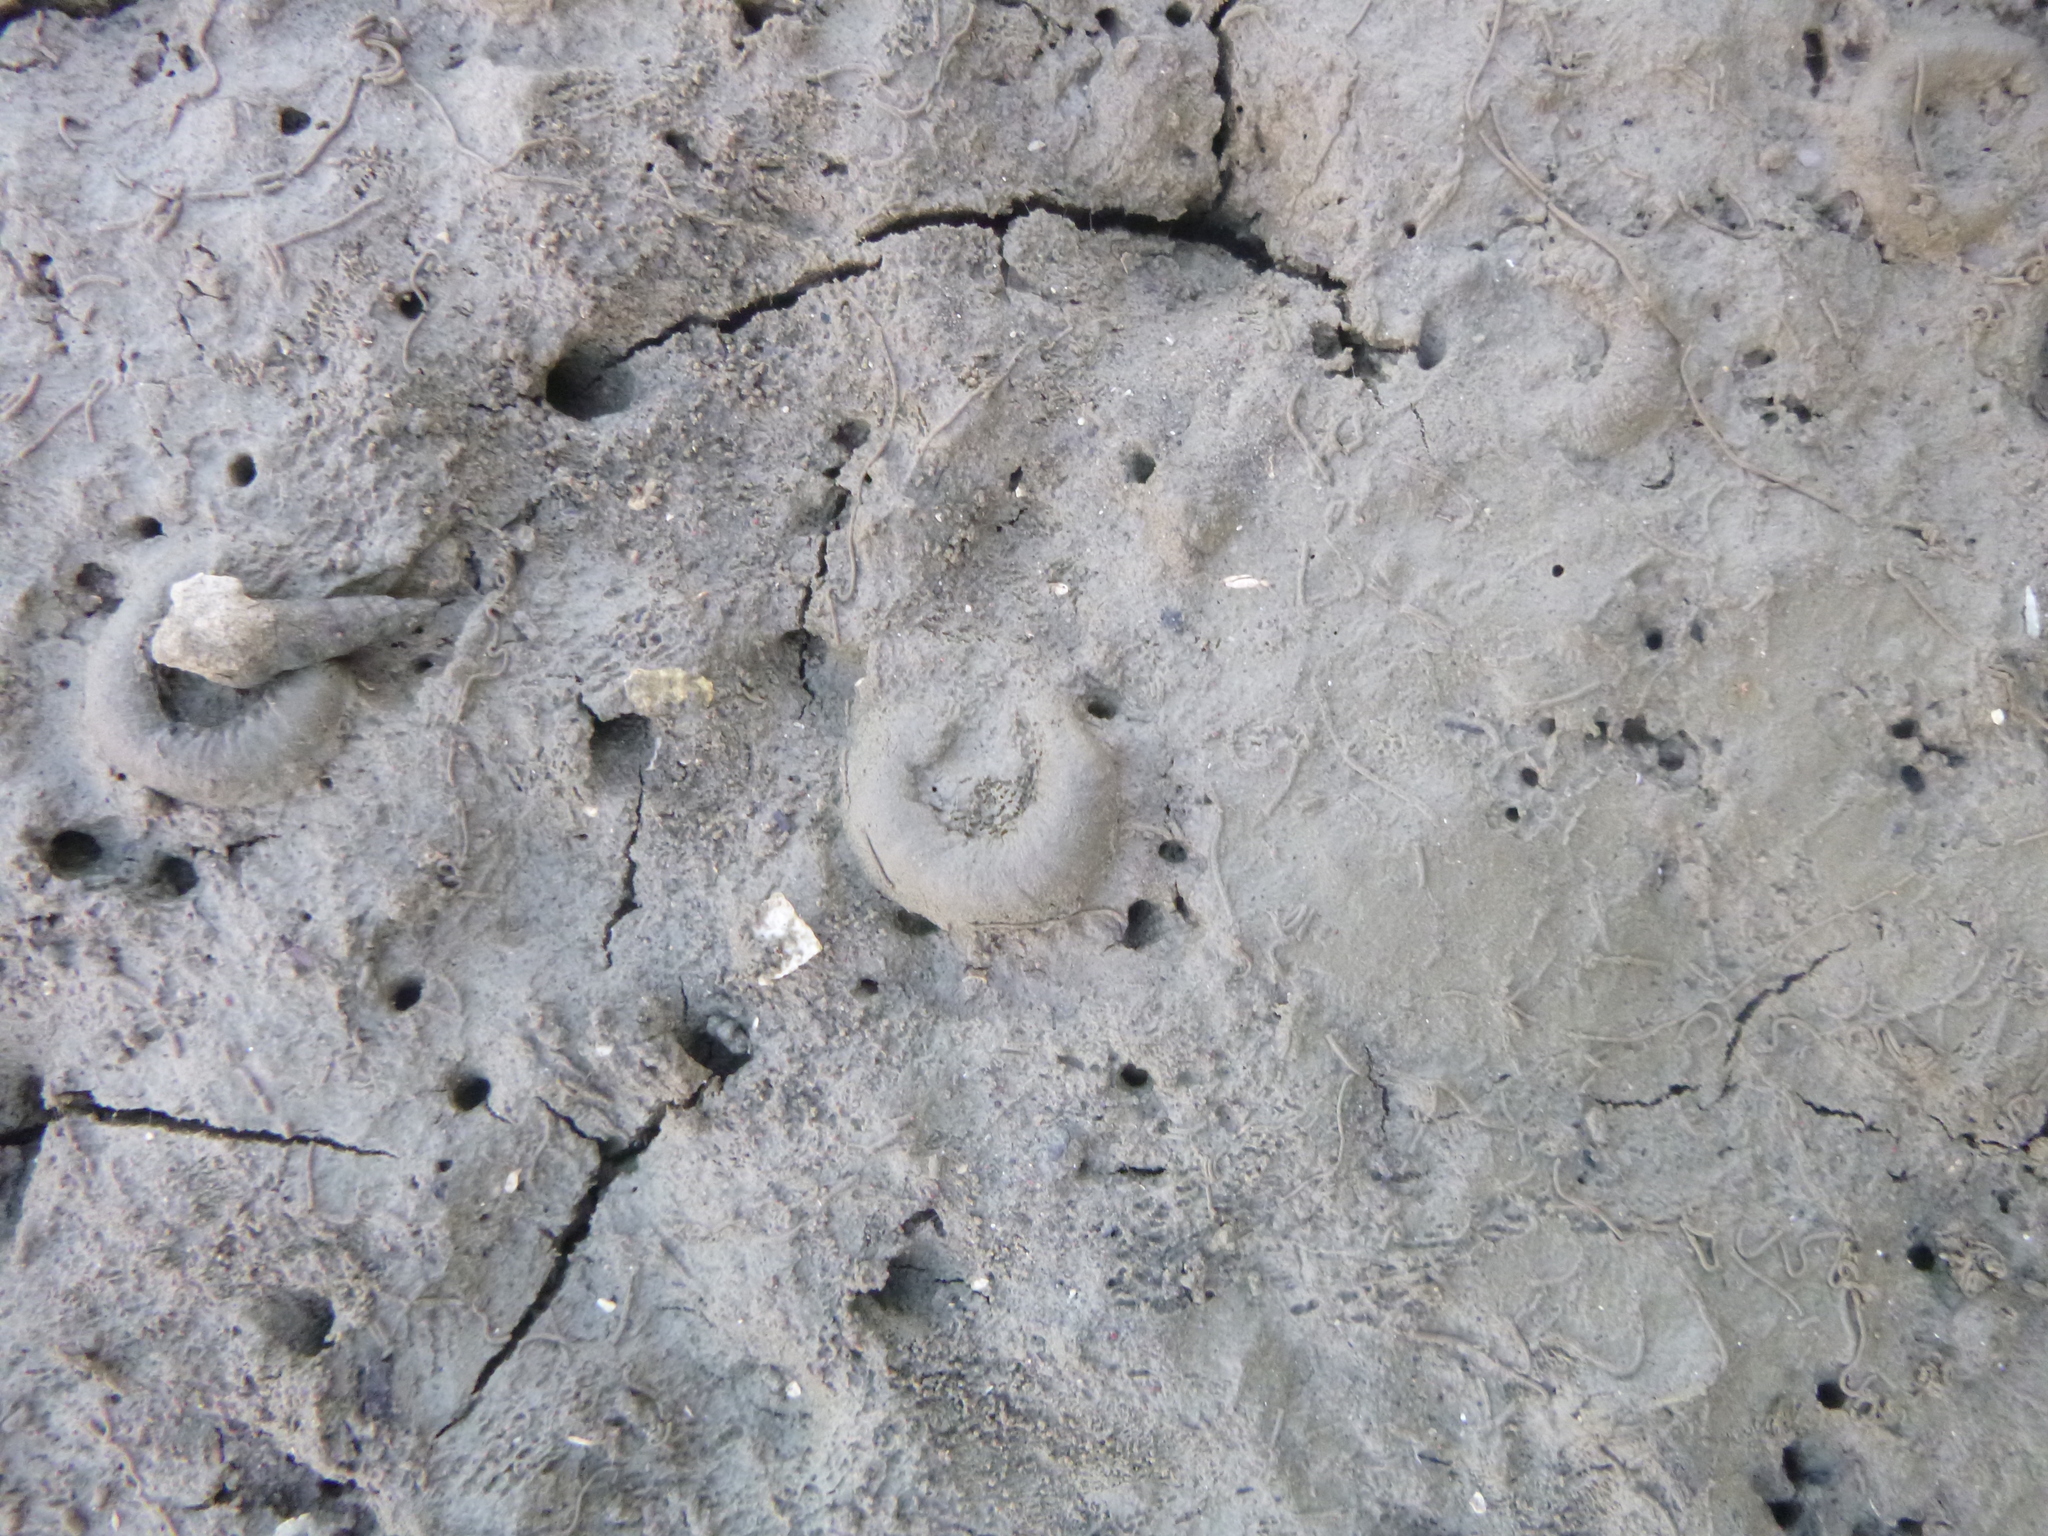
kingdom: Animalia
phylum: Mollusca
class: Gastropoda
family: Amphibolidae
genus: Amphibola
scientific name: Amphibola crenata
